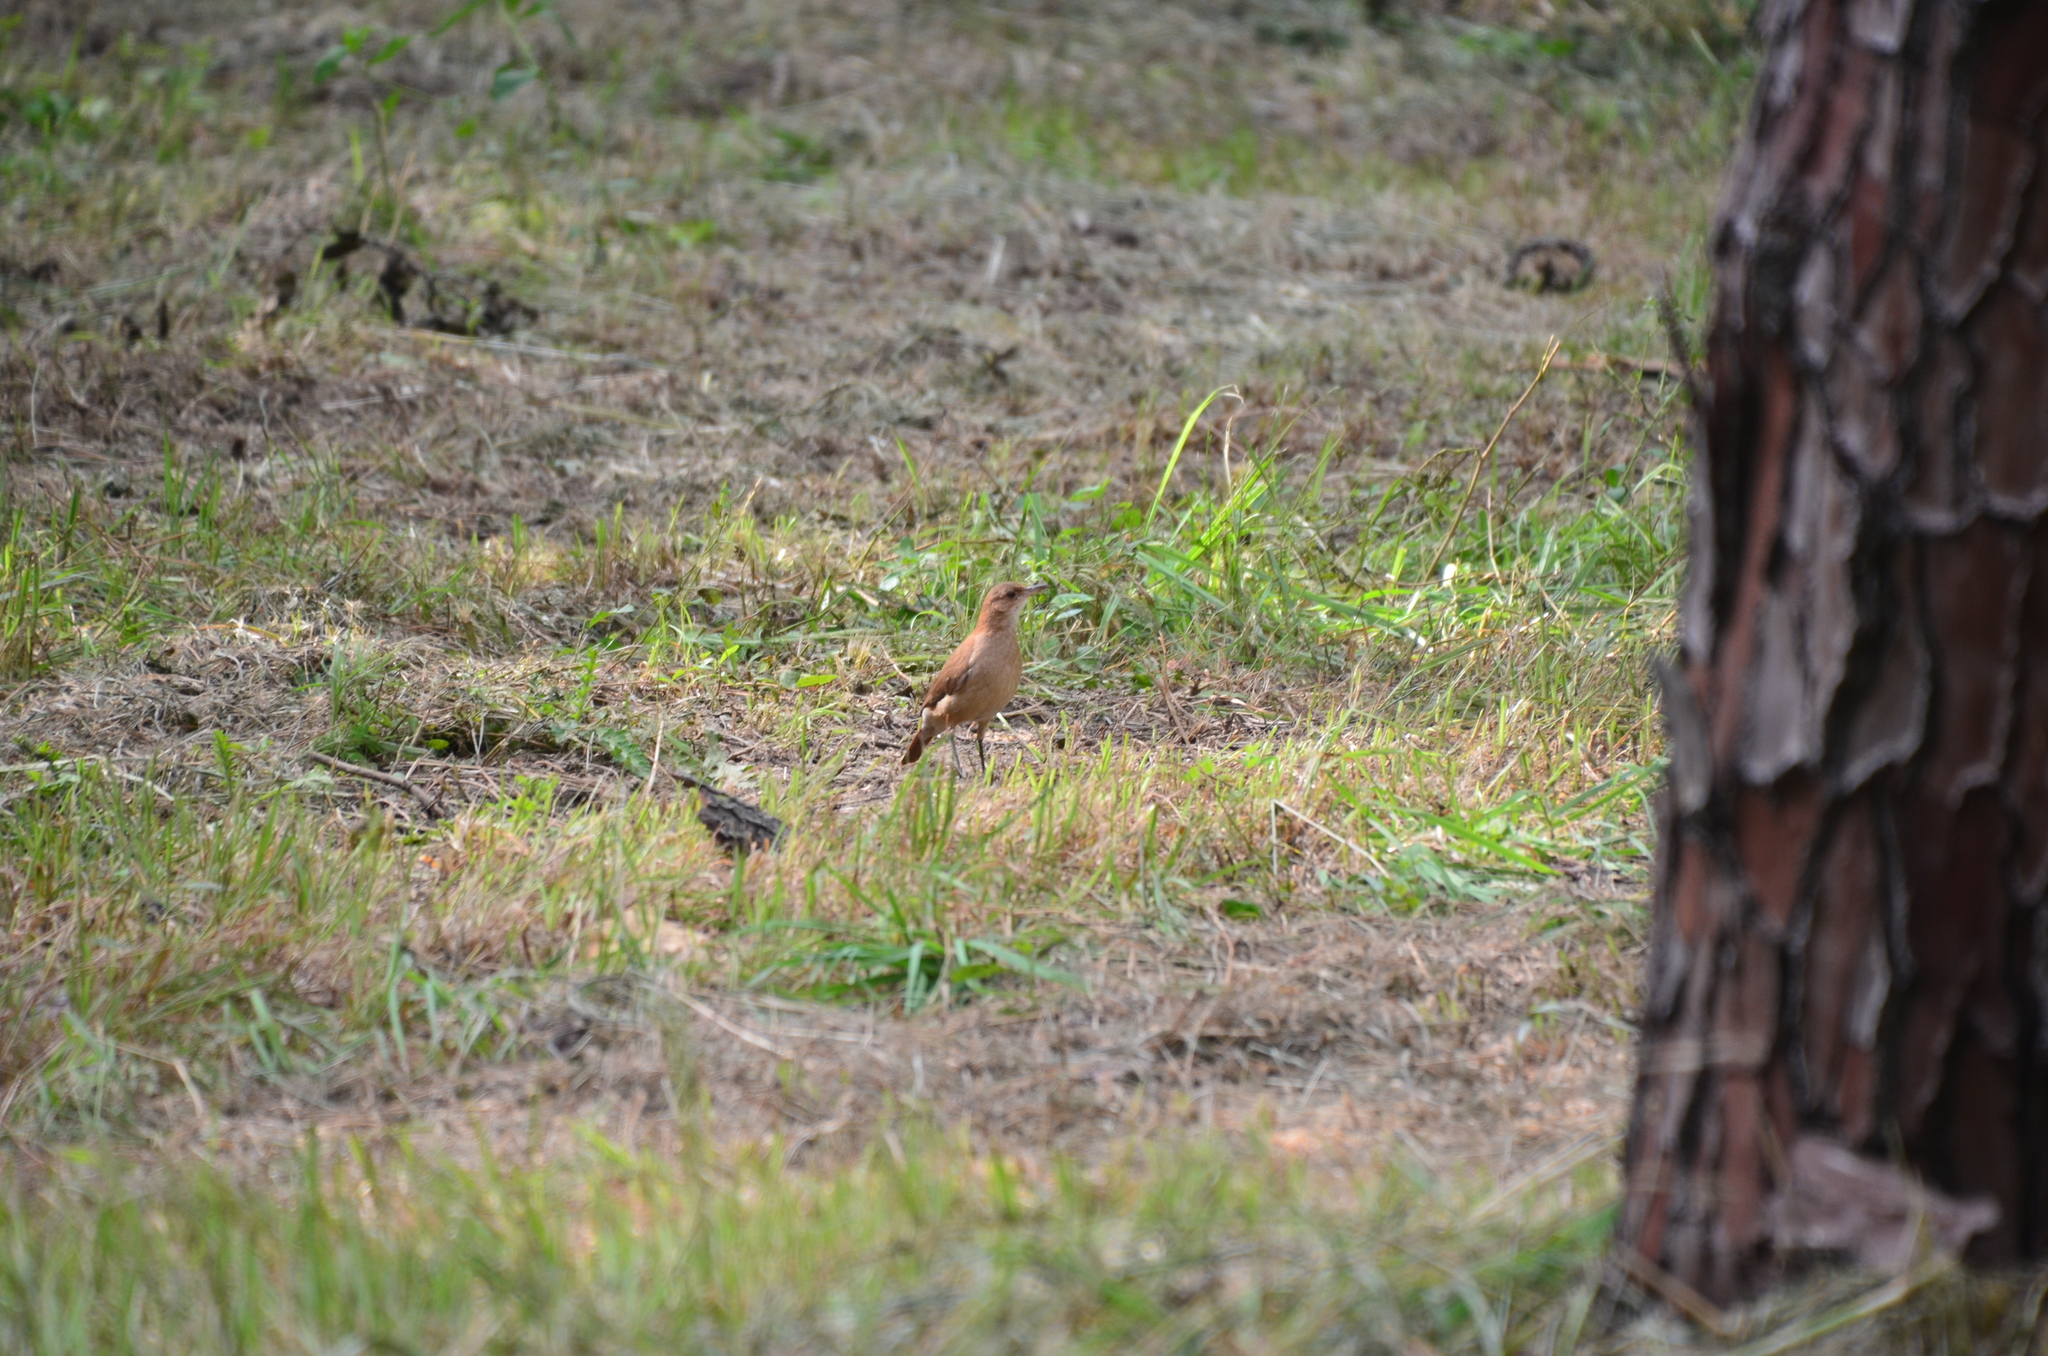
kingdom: Animalia
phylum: Chordata
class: Aves
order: Passeriformes
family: Furnariidae
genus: Furnarius
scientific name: Furnarius rufus
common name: Rufous hornero
